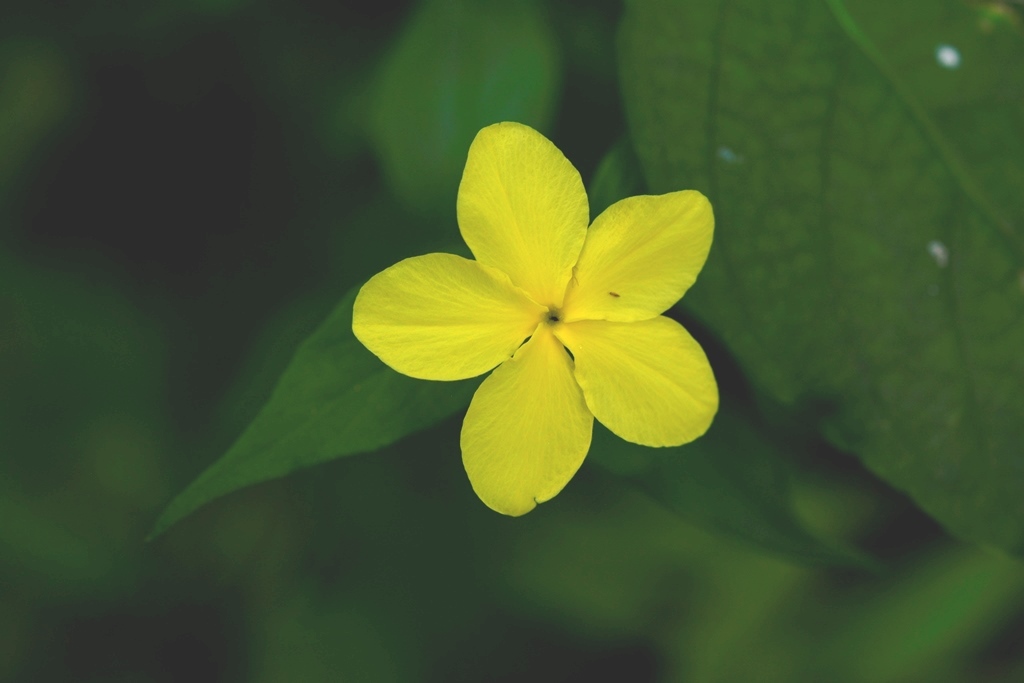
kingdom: Plantae
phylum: Tracheophyta
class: Magnoliopsida
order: Gentianales
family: Apocynaceae
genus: Haplophyton
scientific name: Haplophyton cimicidum
